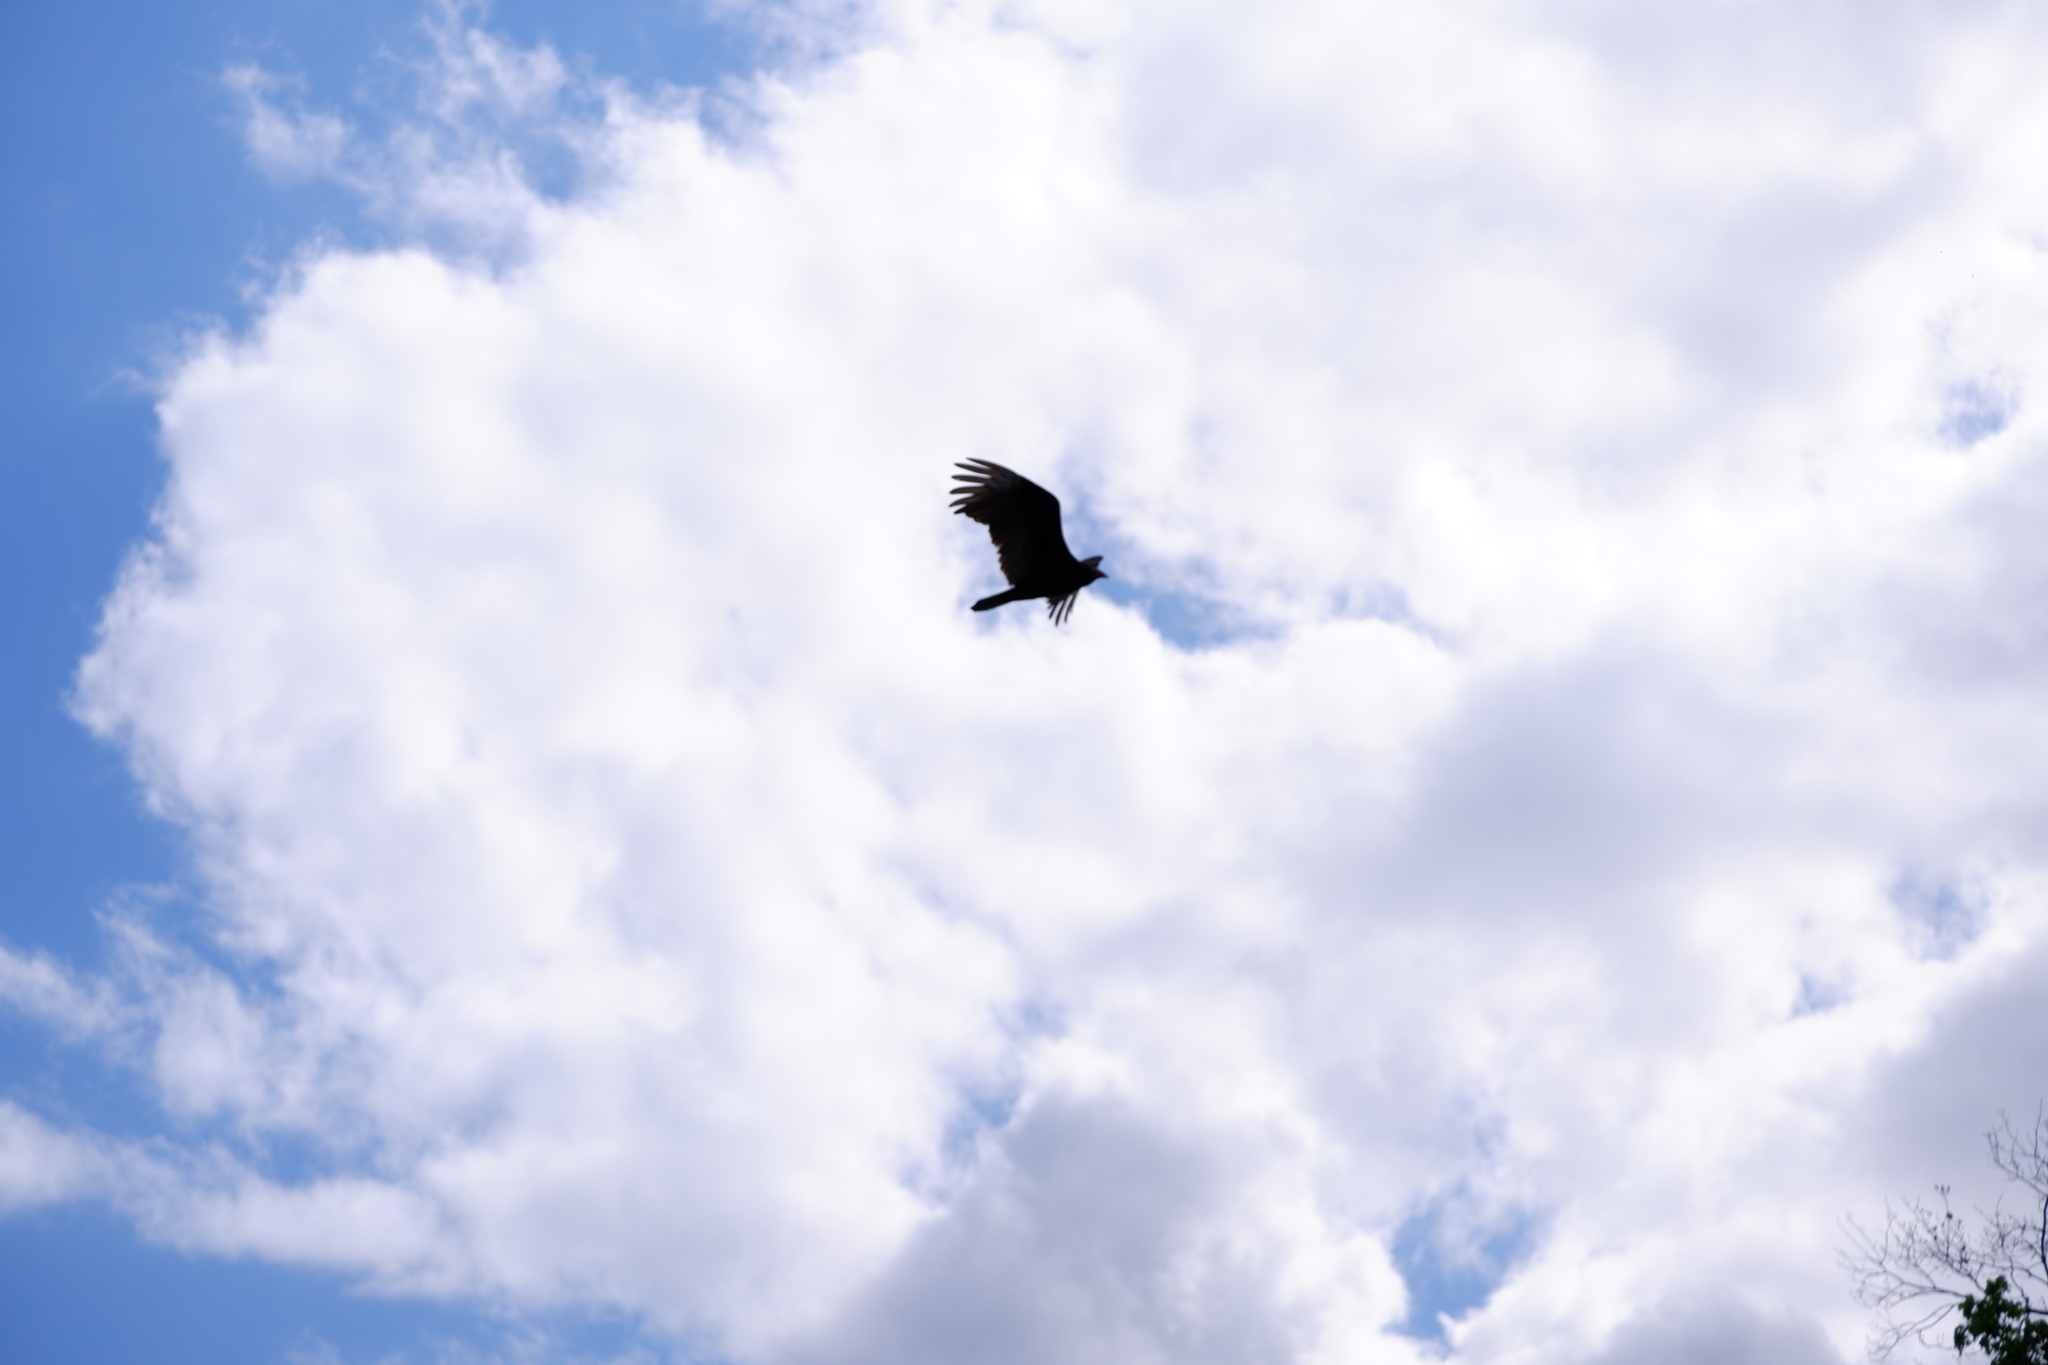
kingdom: Animalia
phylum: Chordata
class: Aves
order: Accipitriformes
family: Cathartidae
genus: Cathartes
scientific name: Cathartes aura
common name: Turkey vulture
